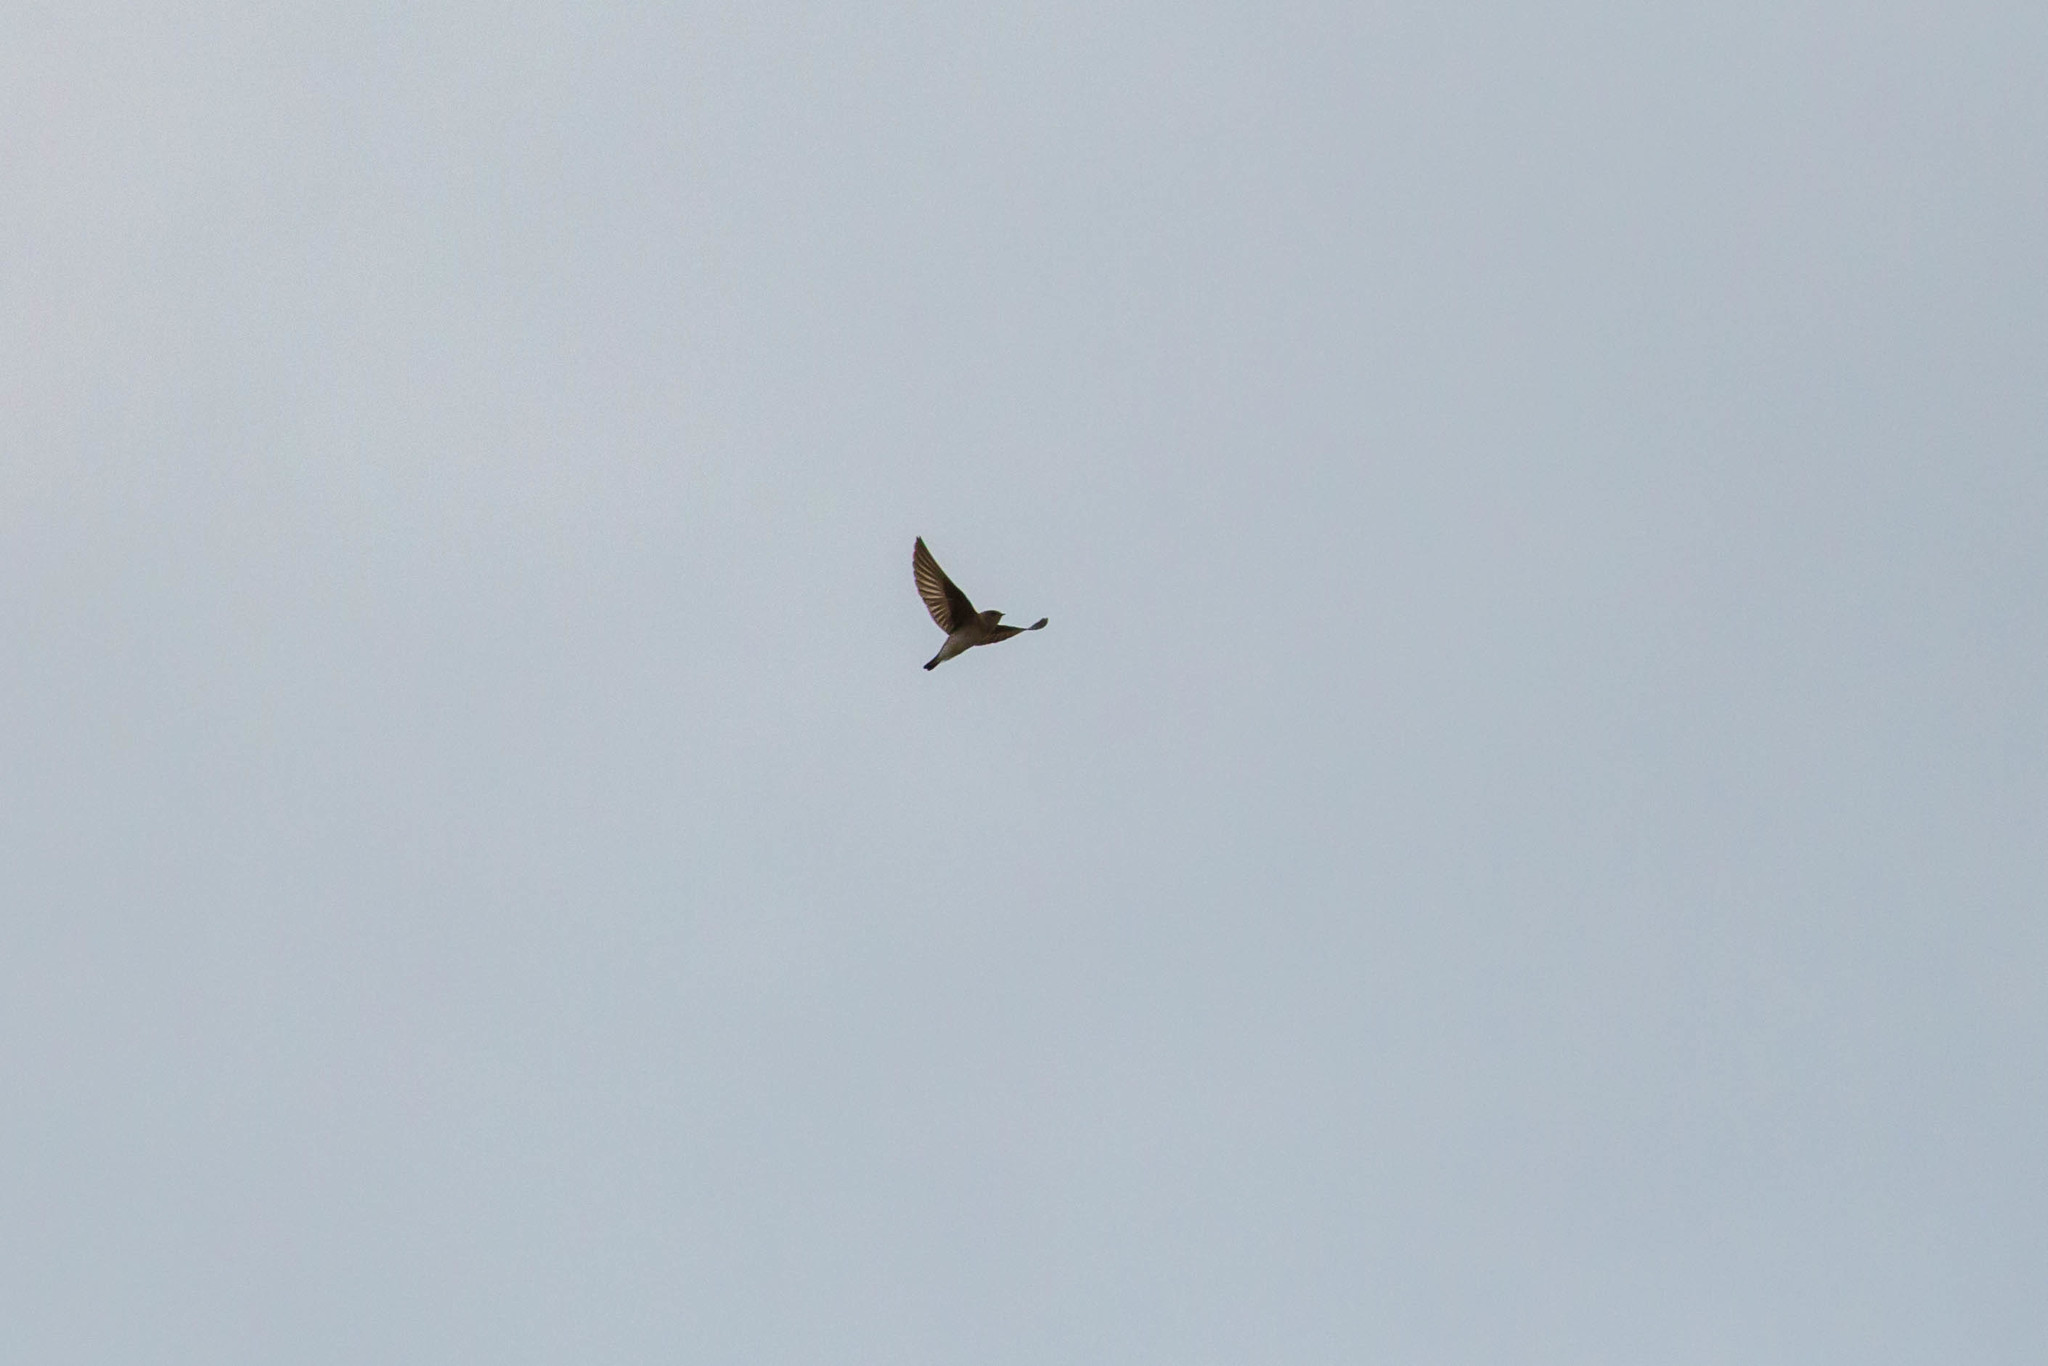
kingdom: Animalia
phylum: Chordata
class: Aves
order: Passeriformes
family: Hirundinidae
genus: Stelgidopteryx
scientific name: Stelgidopteryx serripennis
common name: Northern rough-winged swallow
